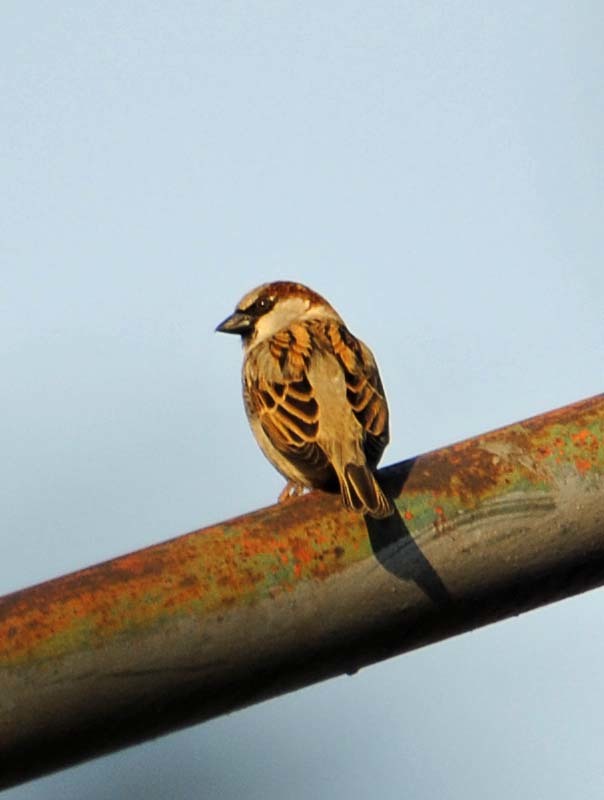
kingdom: Animalia
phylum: Chordata
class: Aves
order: Passeriformes
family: Passeridae
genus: Passer
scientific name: Passer domesticus
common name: House sparrow
